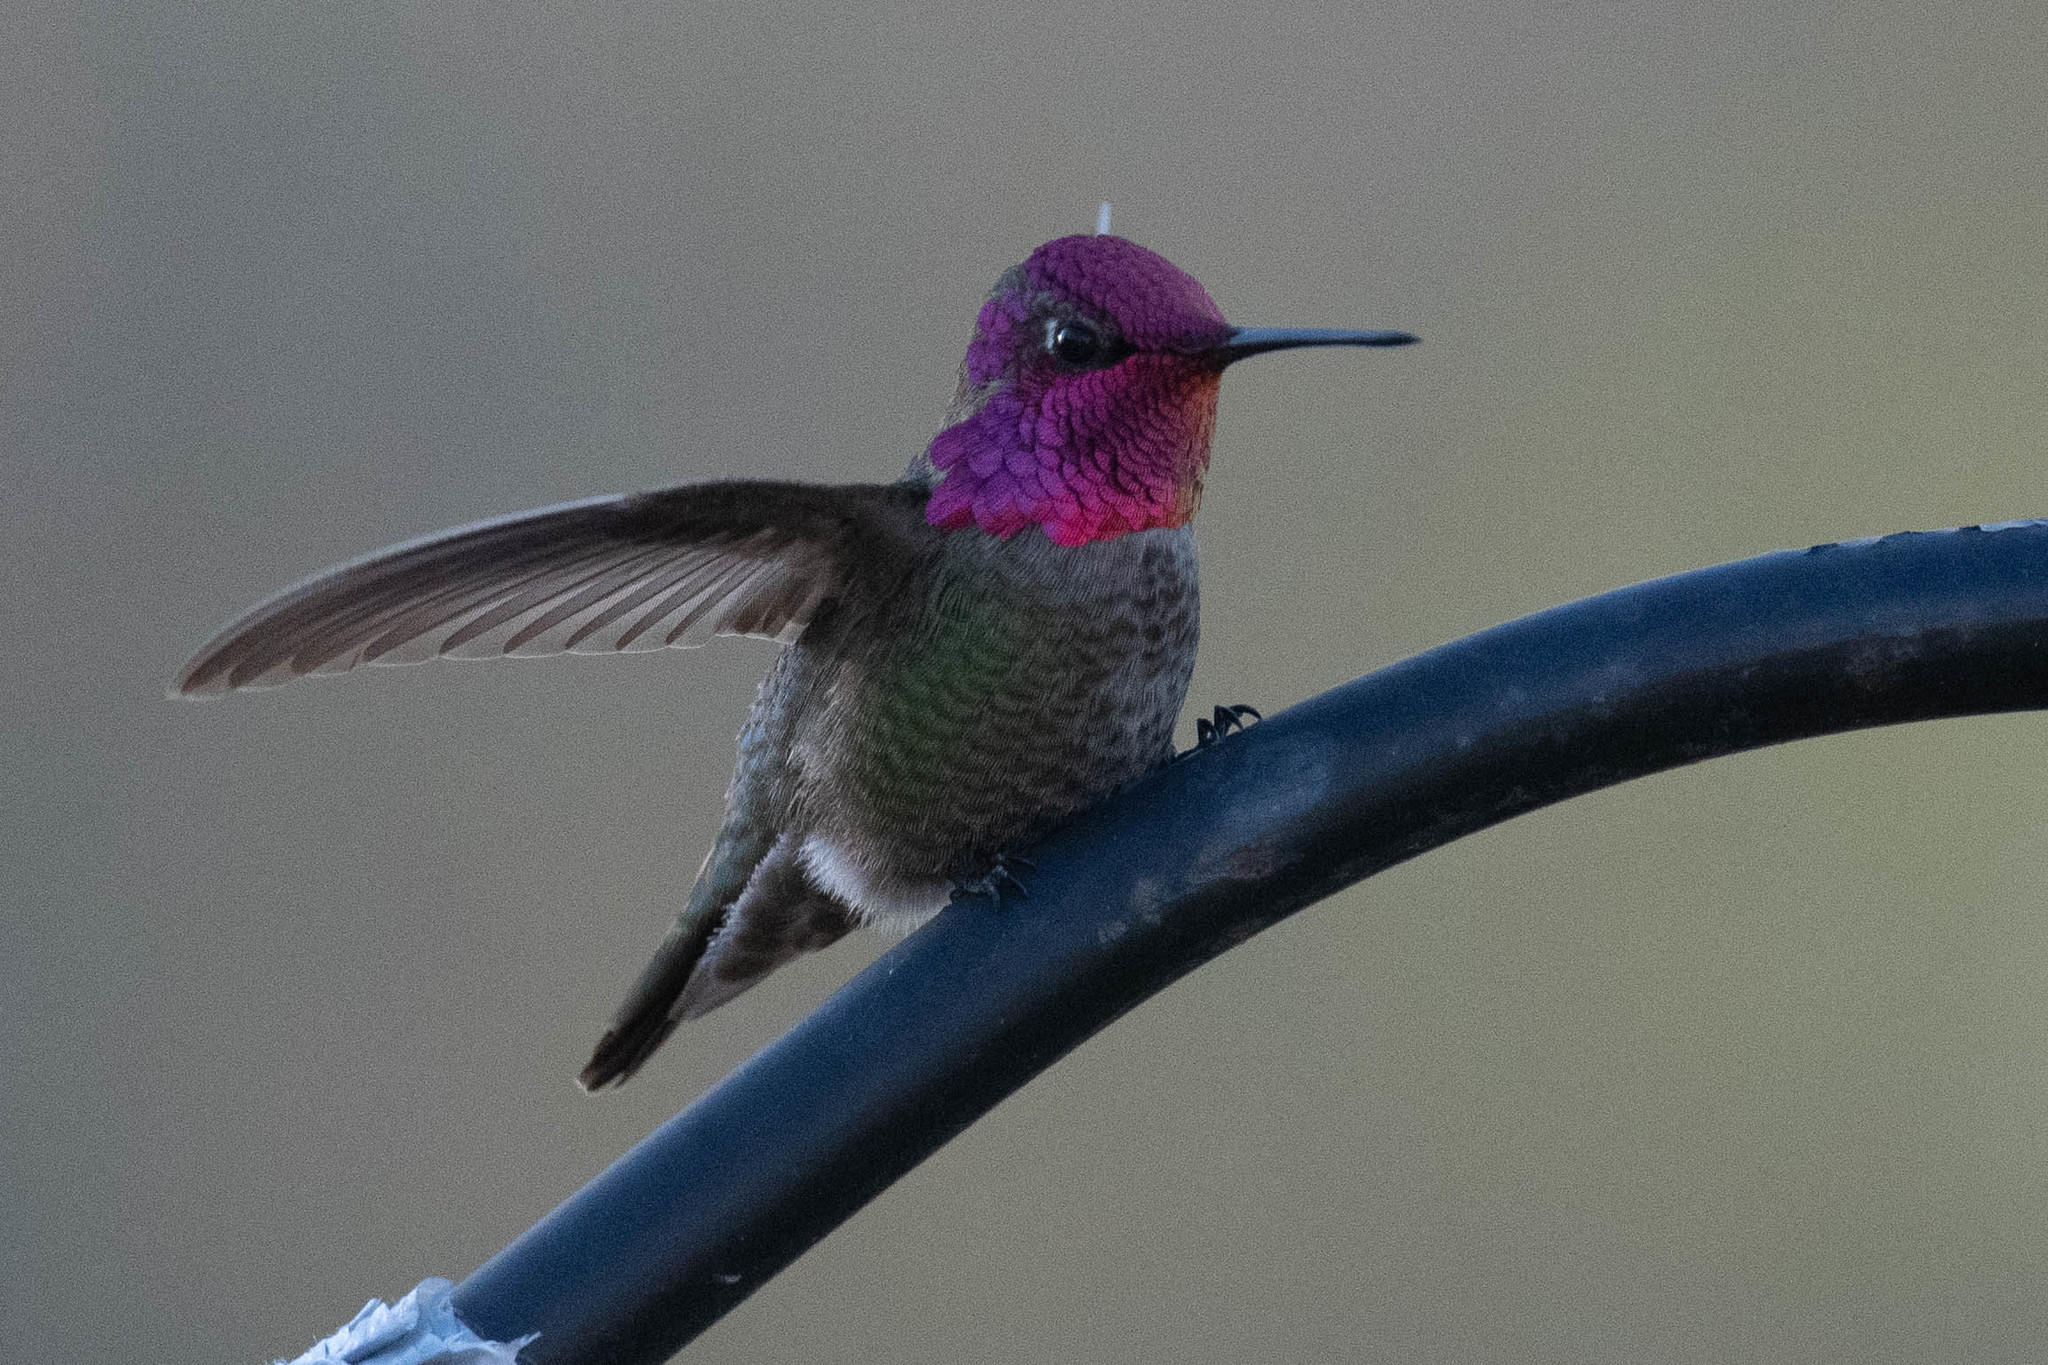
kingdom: Animalia
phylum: Chordata
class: Aves
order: Apodiformes
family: Trochilidae
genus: Calypte
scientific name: Calypte anna
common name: Anna's hummingbird
